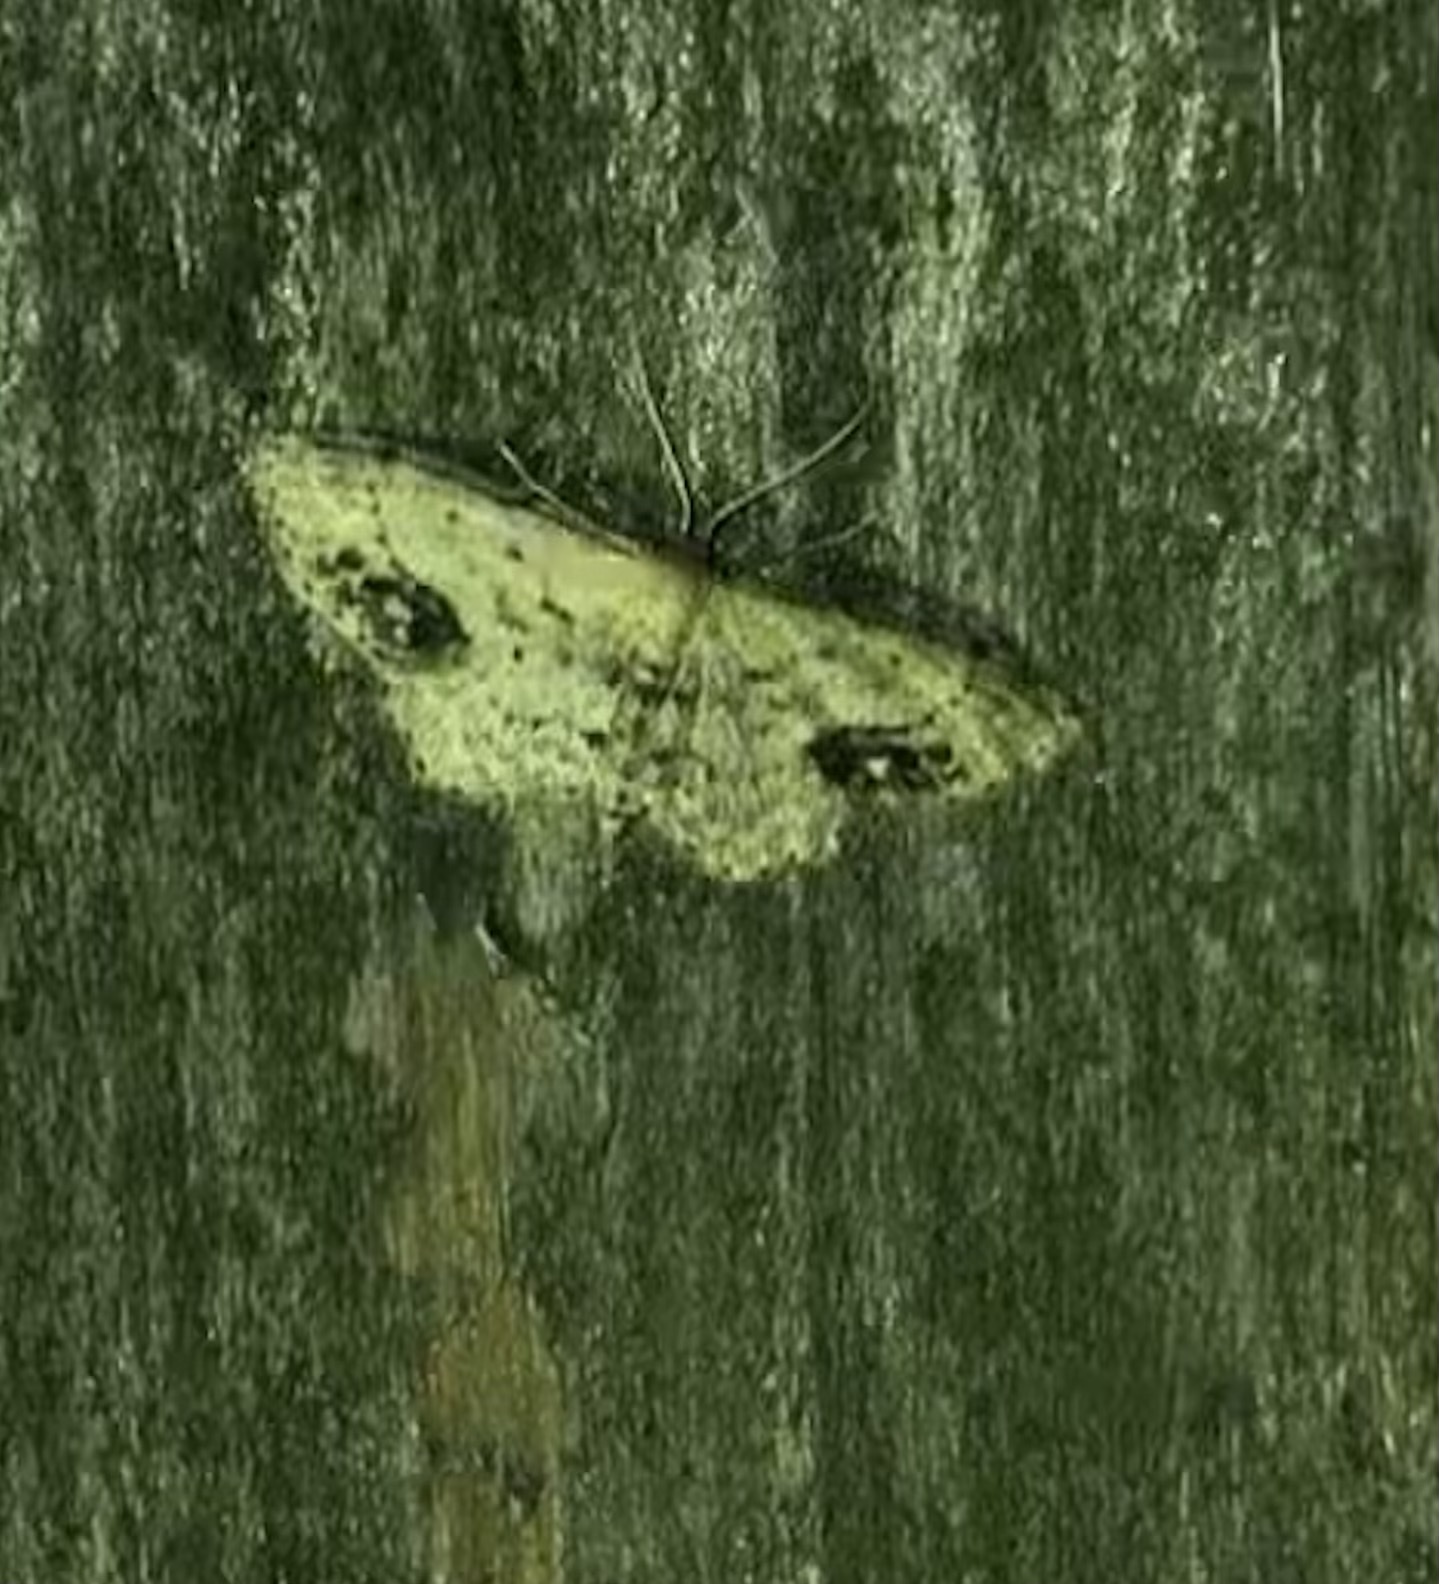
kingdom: Animalia
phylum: Arthropoda
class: Insecta
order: Lepidoptera
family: Geometridae
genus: Idaea
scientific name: Idaea dimidiata
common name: Single-dotted wave
